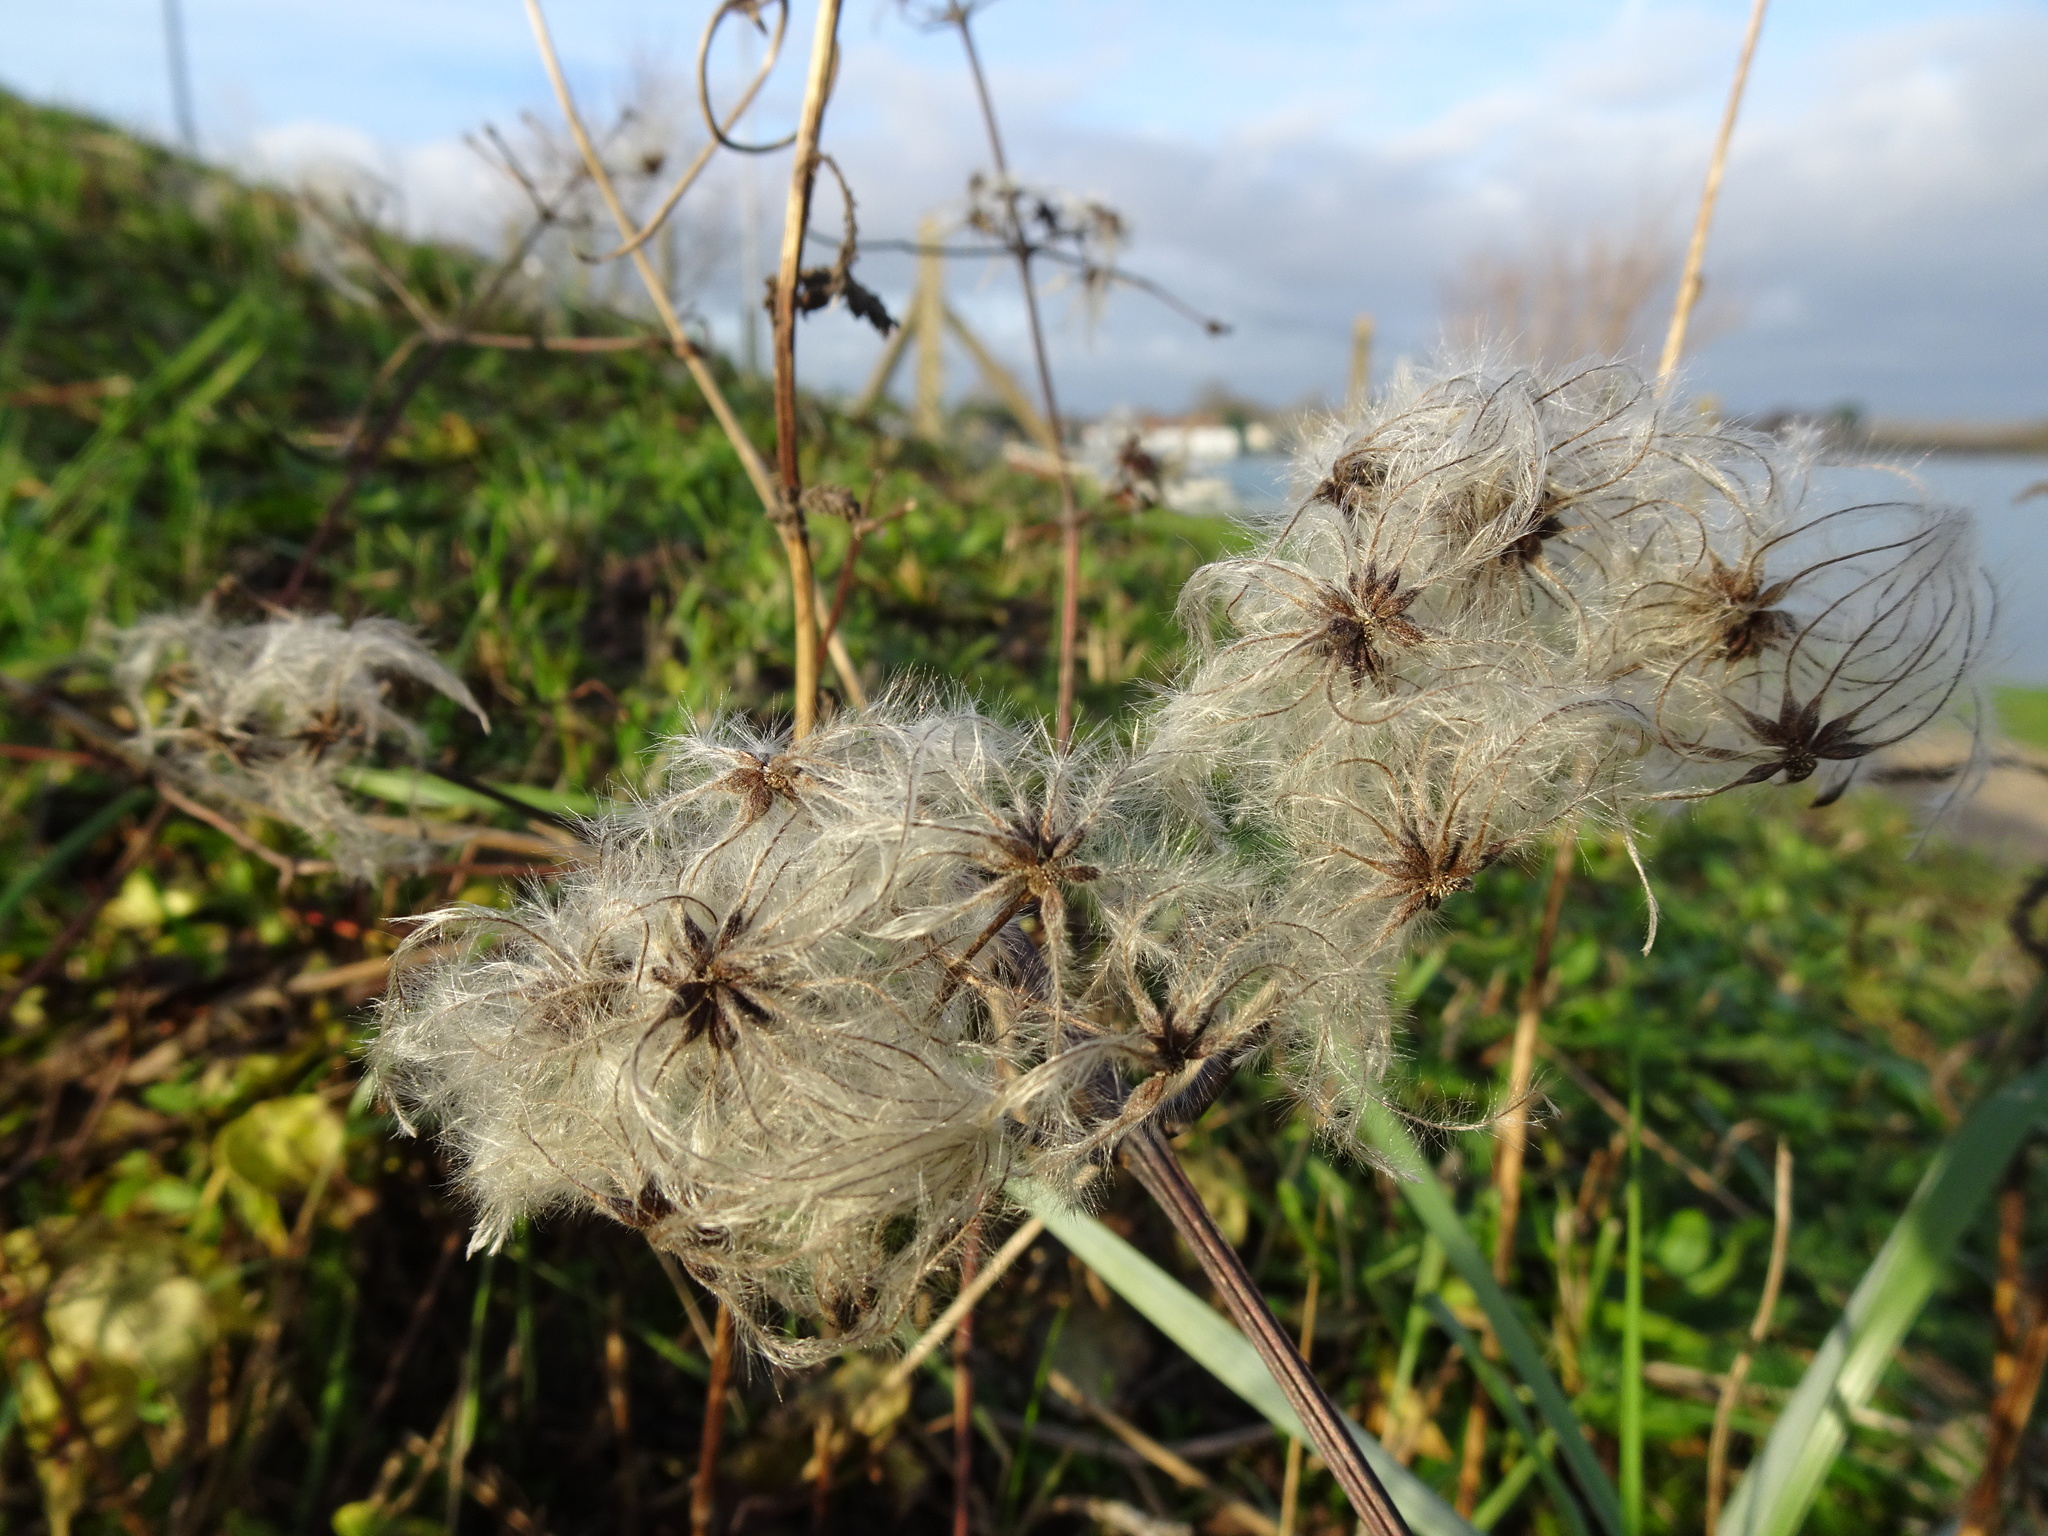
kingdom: Plantae
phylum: Tracheophyta
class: Magnoliopsida
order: Ranunculales
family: Ranunculaceae
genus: Clematis
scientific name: Clematis vitalba
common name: Evergreen clematis
